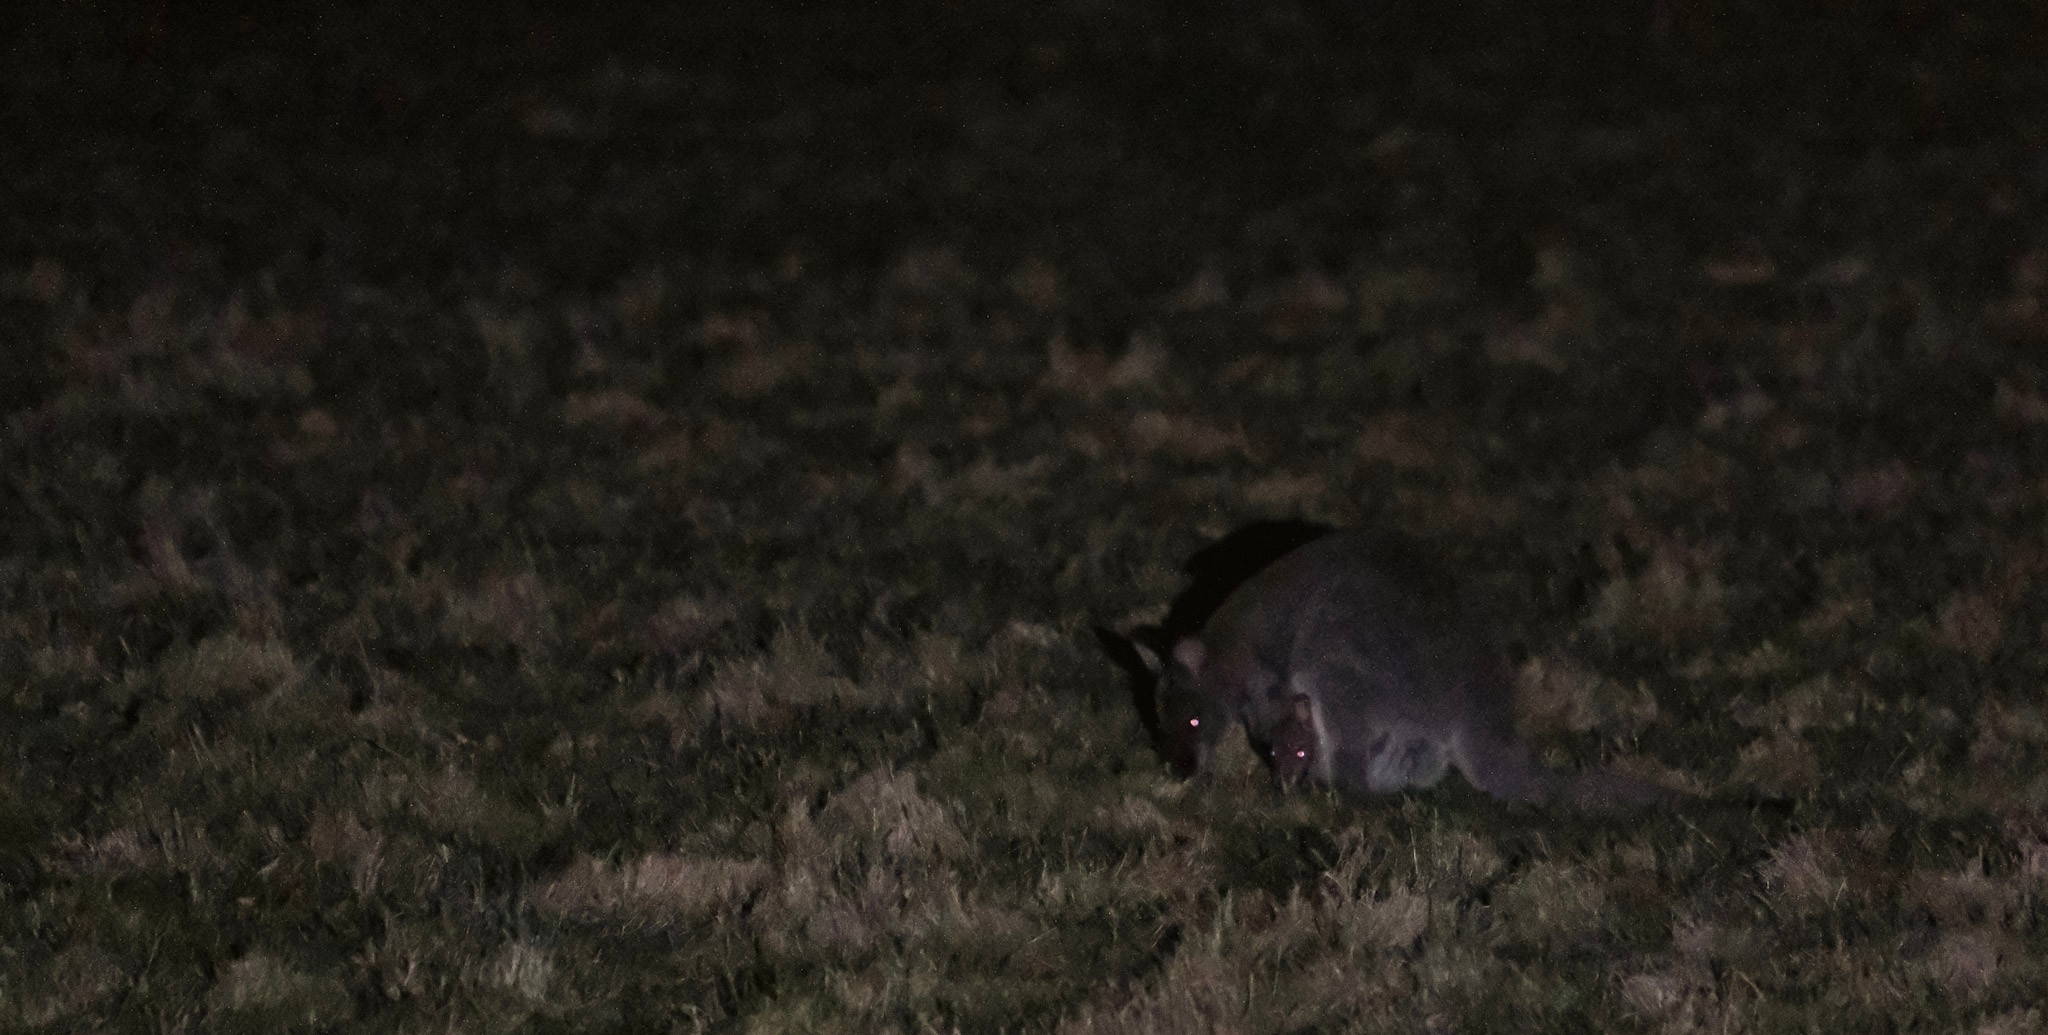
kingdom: Animalia
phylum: Chordata
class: Mammalia
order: Diprotodontia
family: Macropodidae
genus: Notamacropus
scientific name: Notamacropus rufogriseus
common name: Red-necked wallaby
